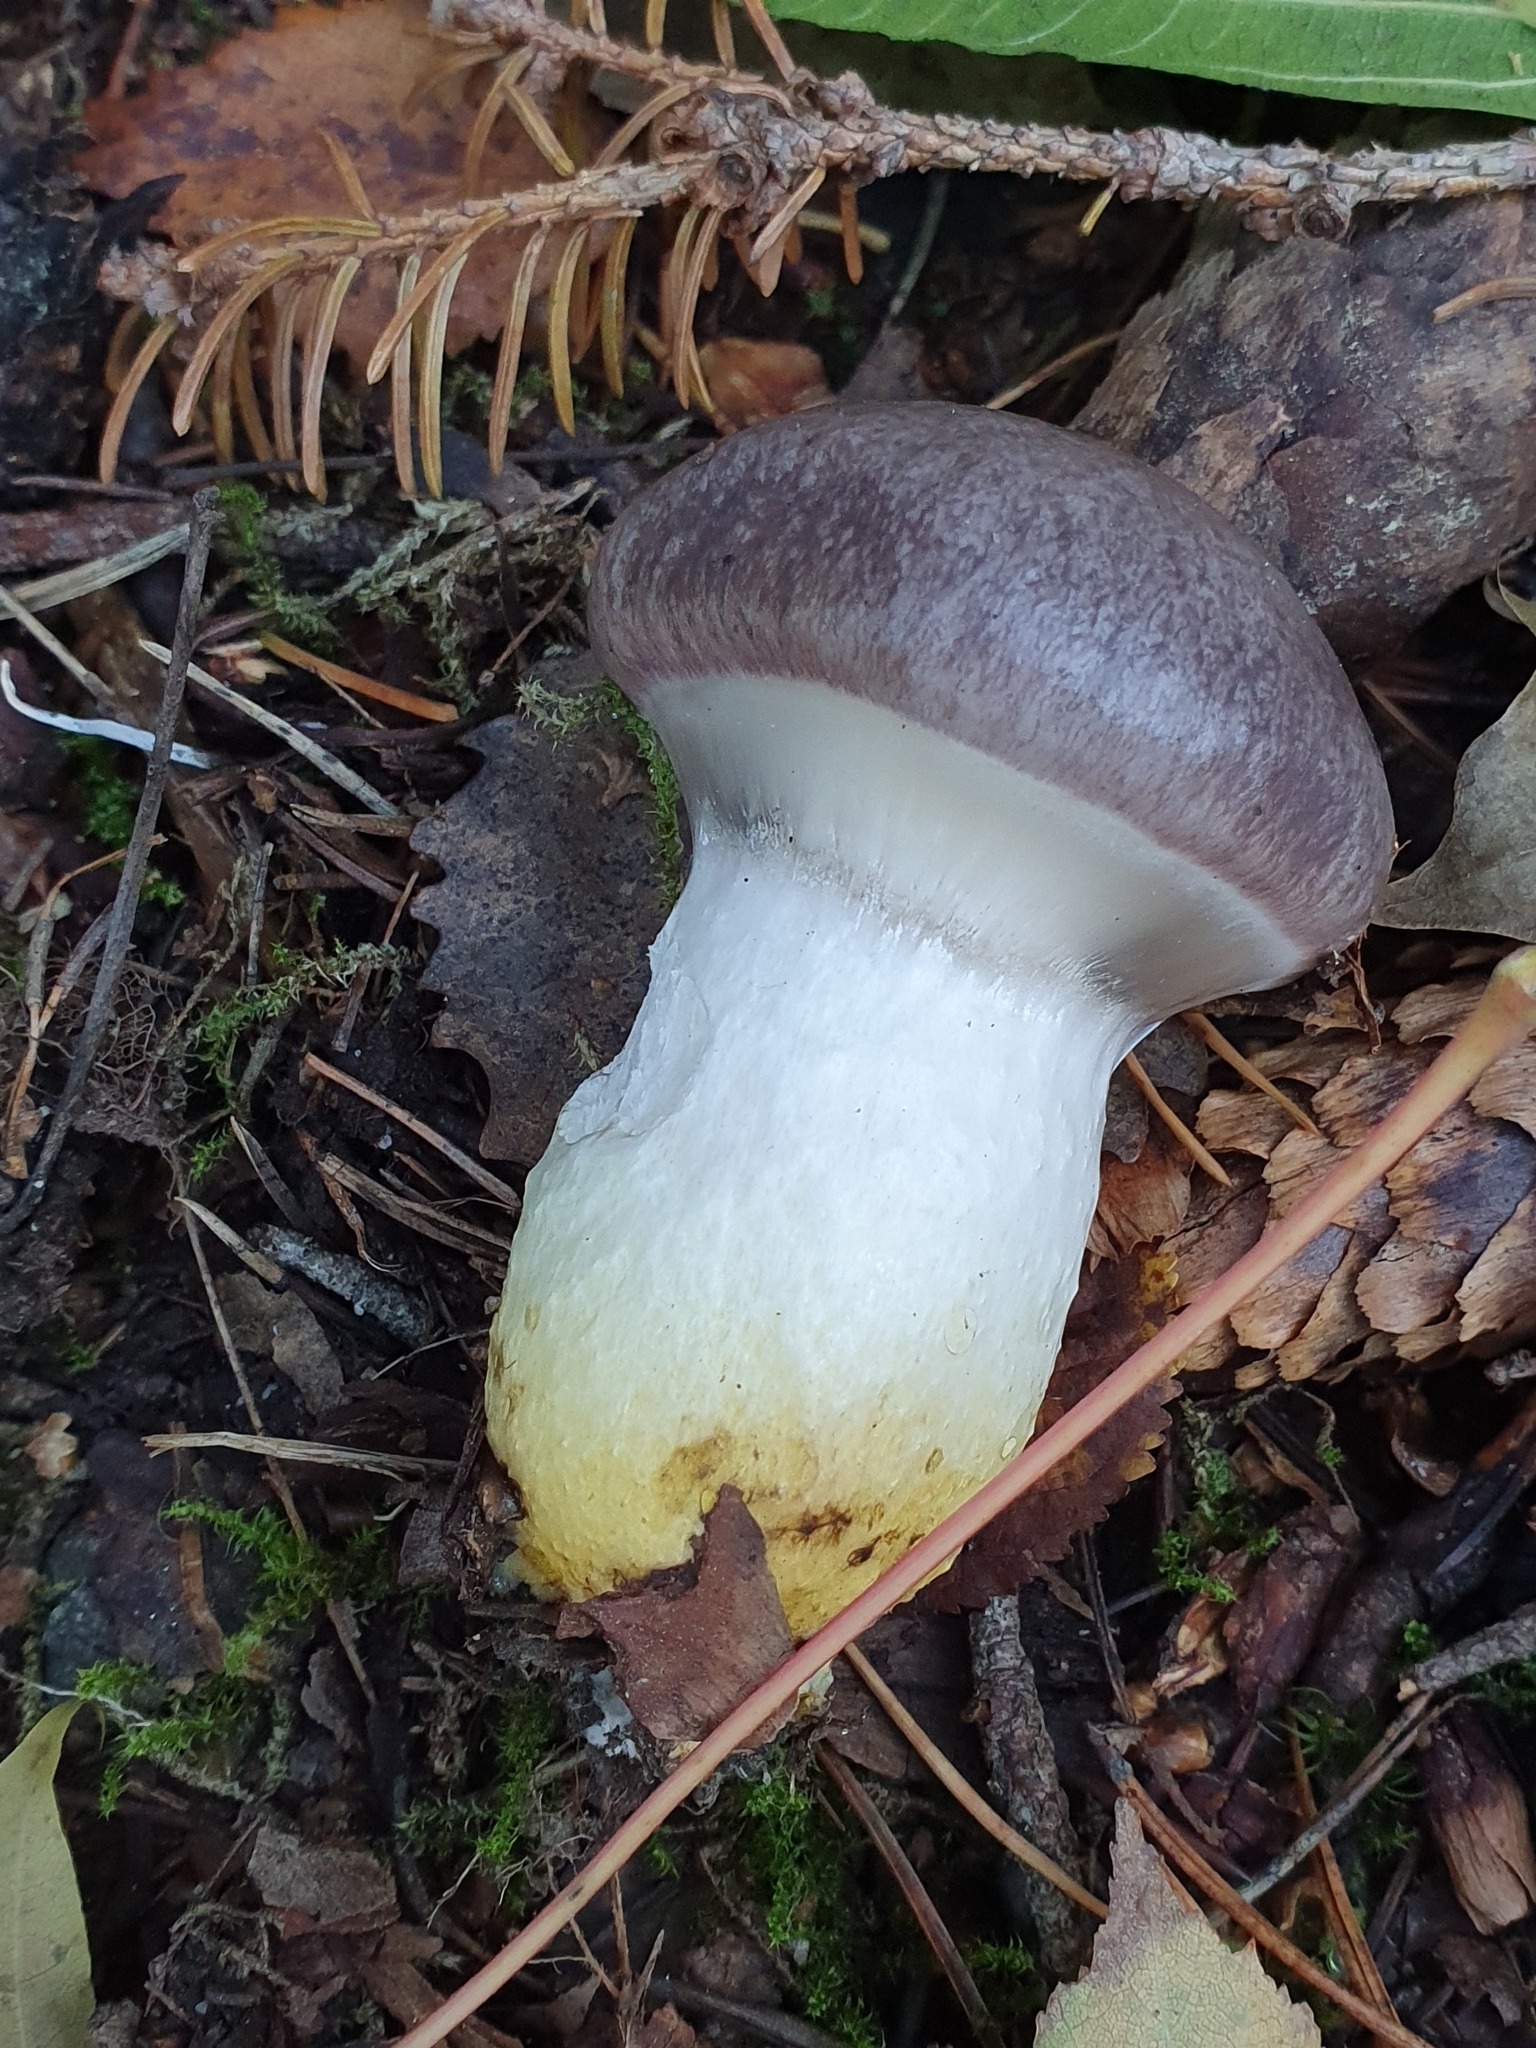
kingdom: Fungi
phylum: Basidiomycota
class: Agaricomycetes
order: Boletales
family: Gomphidiaceae
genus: Gomphidius
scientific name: Gomphidius glutinosus
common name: Slimy spike
